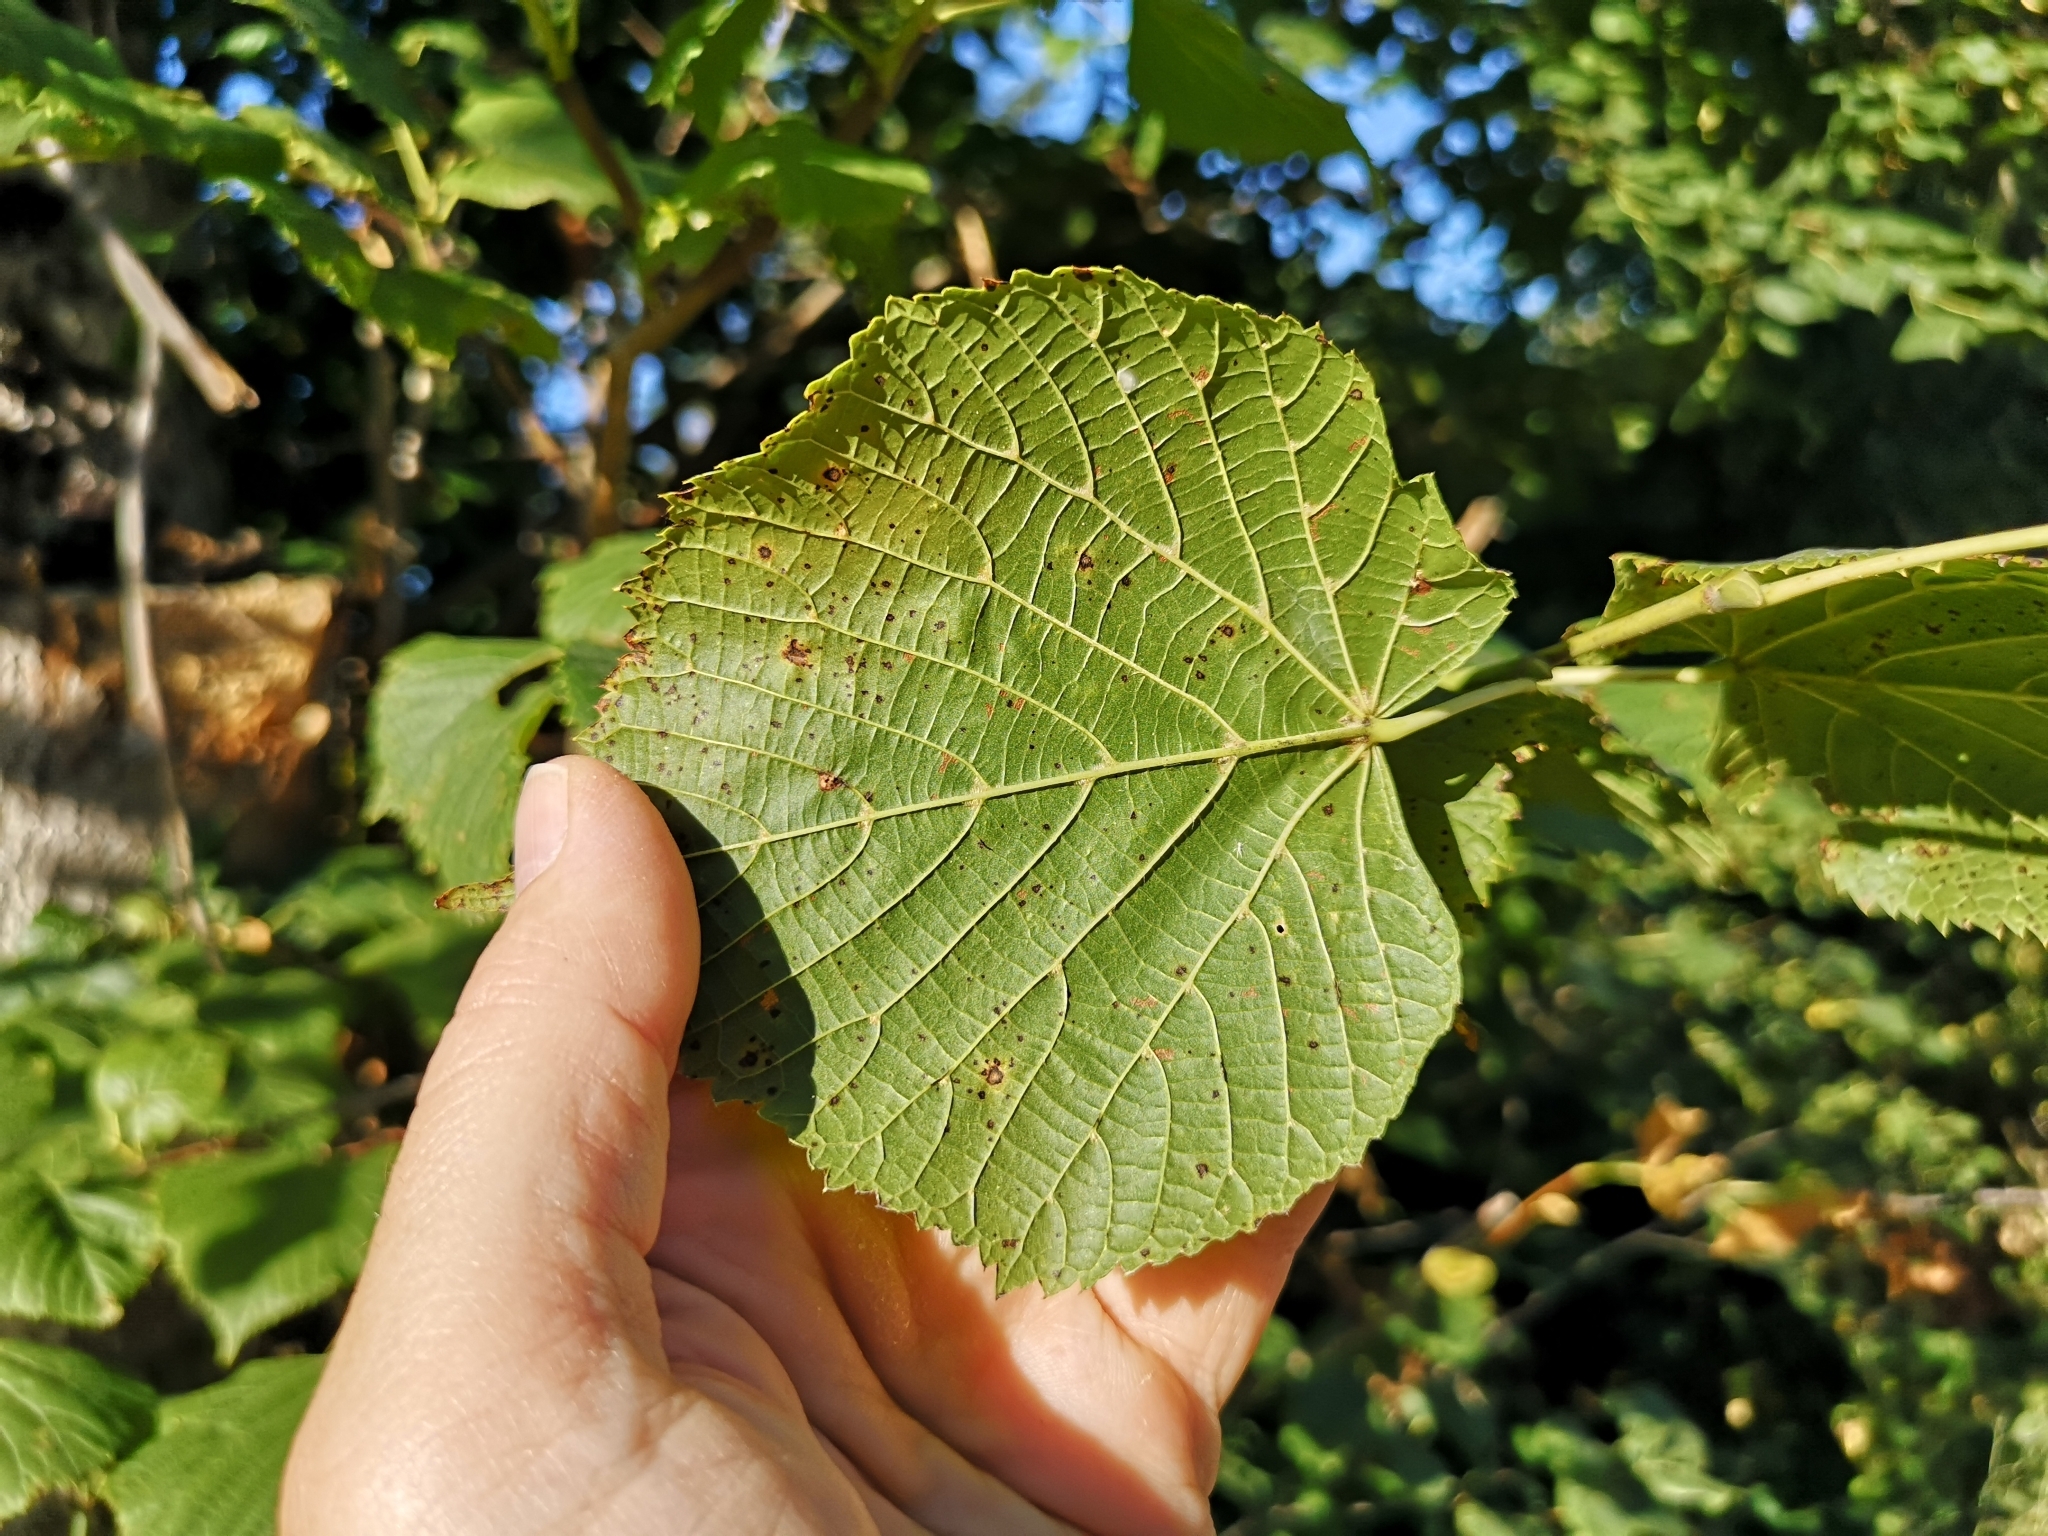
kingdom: Plantae
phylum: Tracheophyta
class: Magnoliopsida
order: Malvales
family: Malvaceae
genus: Tilia
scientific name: Tilia platyphyllos
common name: Large-leaved lime
